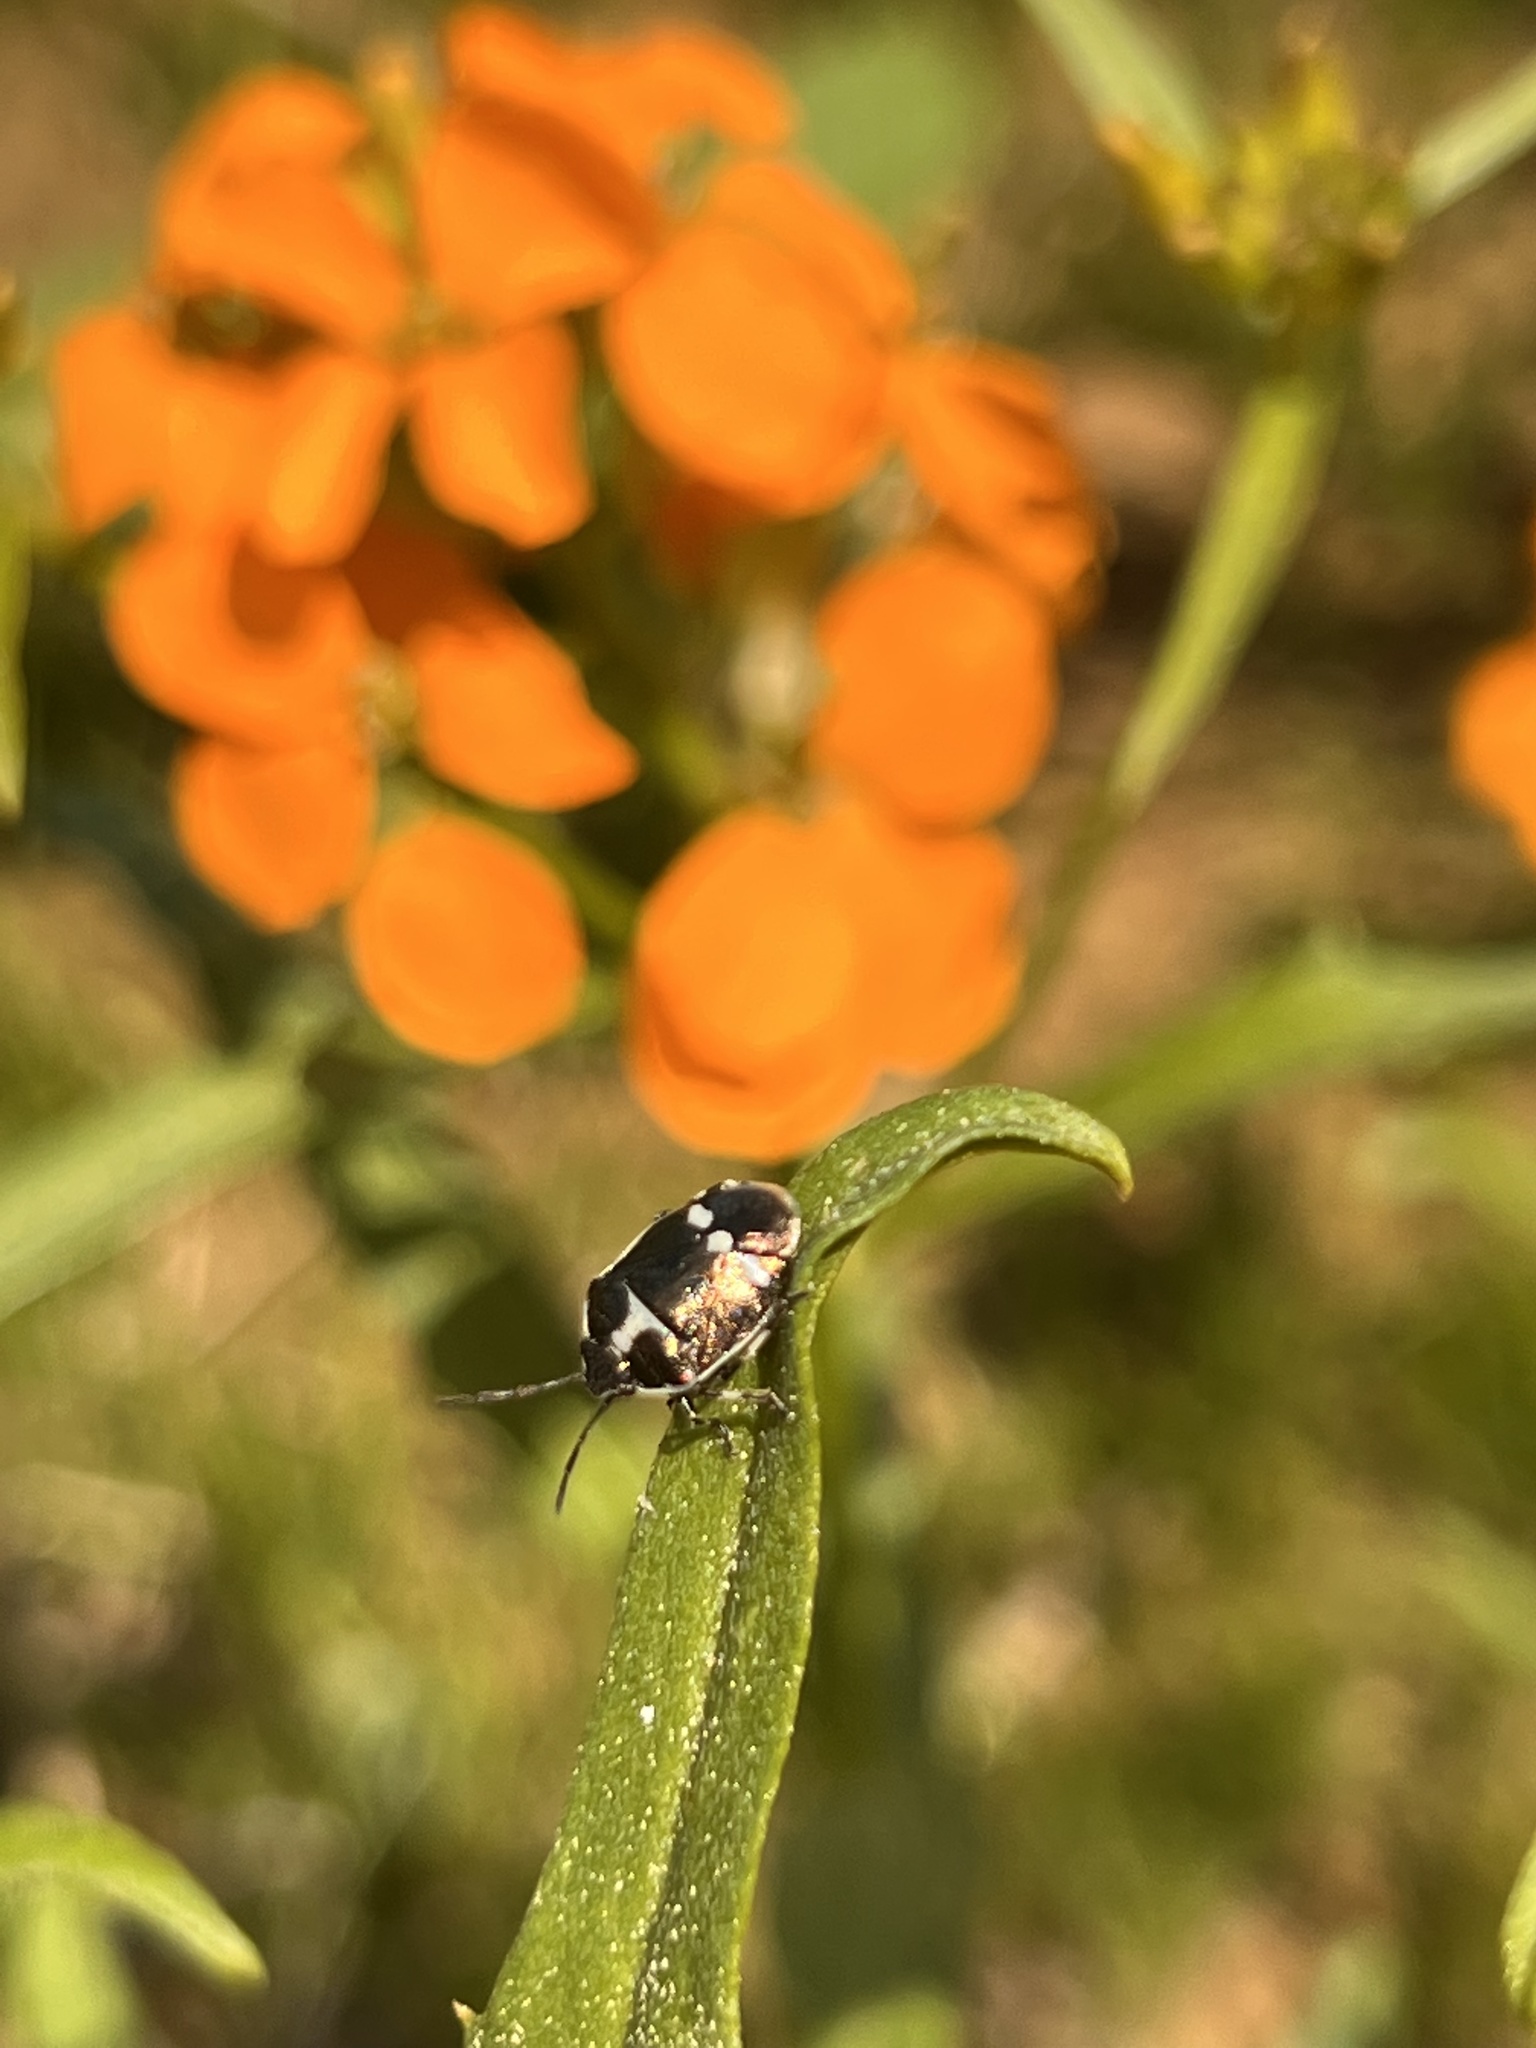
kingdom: Animalia
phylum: Arthropoda
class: Insecta
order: Hemiptera
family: Pentatomidae
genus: Eurydema
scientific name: Eurydema oleracea
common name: Cabbage bug
